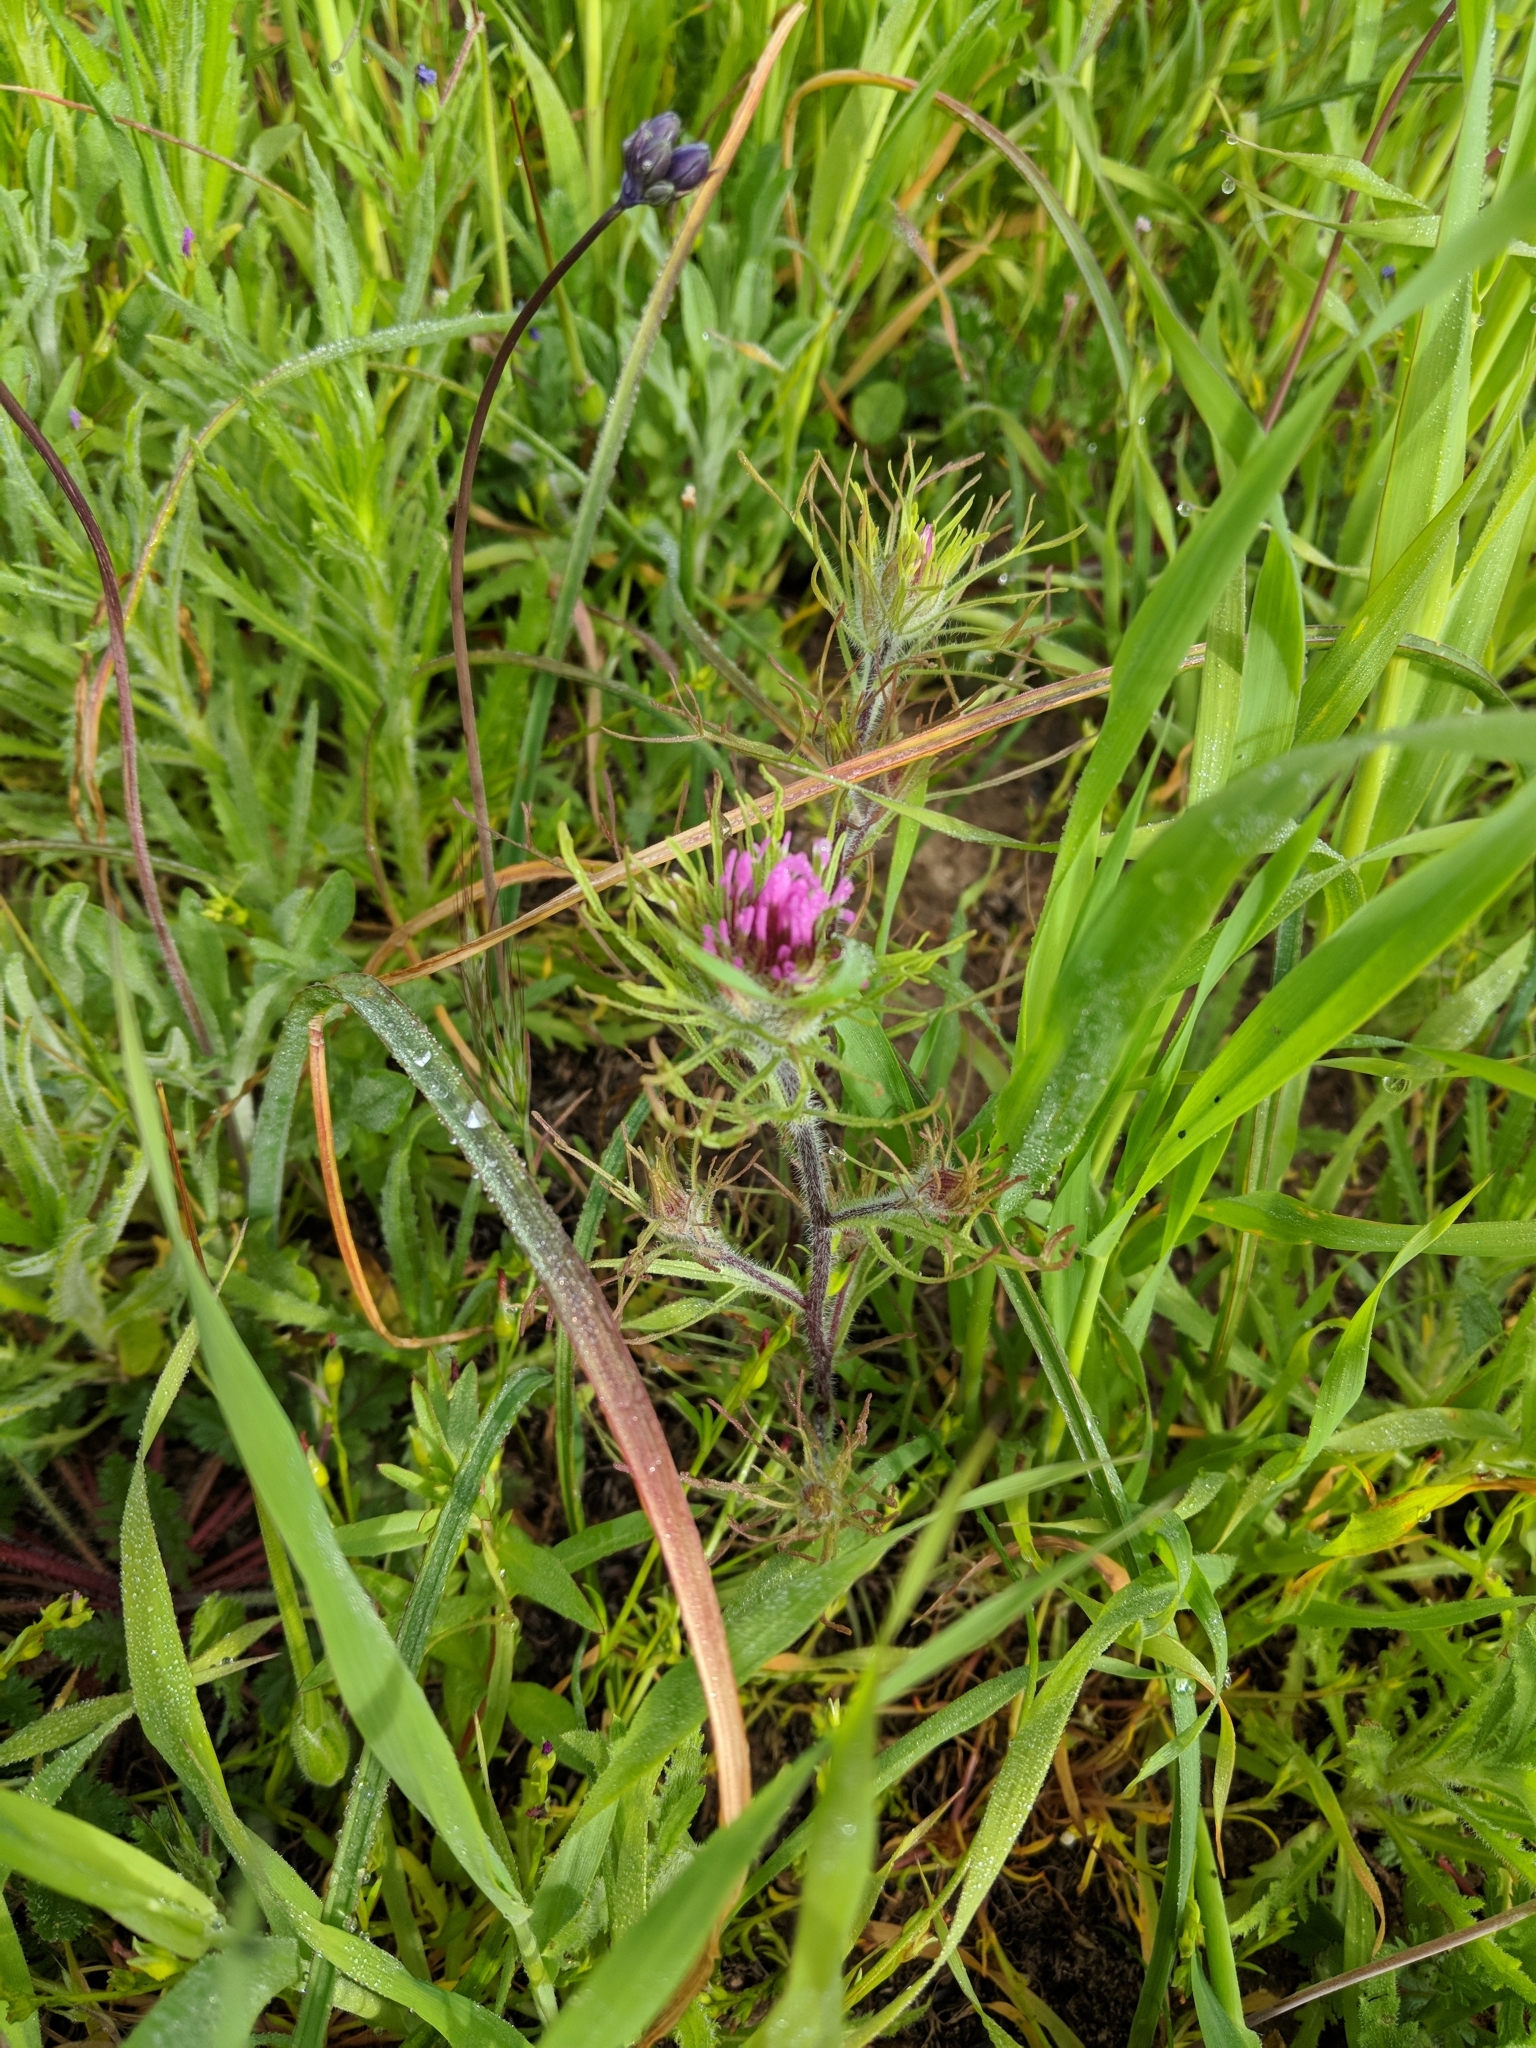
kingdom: Plantae
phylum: Tracheophyta
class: Magnoliopsida
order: Lamiales
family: Orobanchaceae
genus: Castilleja
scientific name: Castilleja exserta
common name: Purple owl-clover
